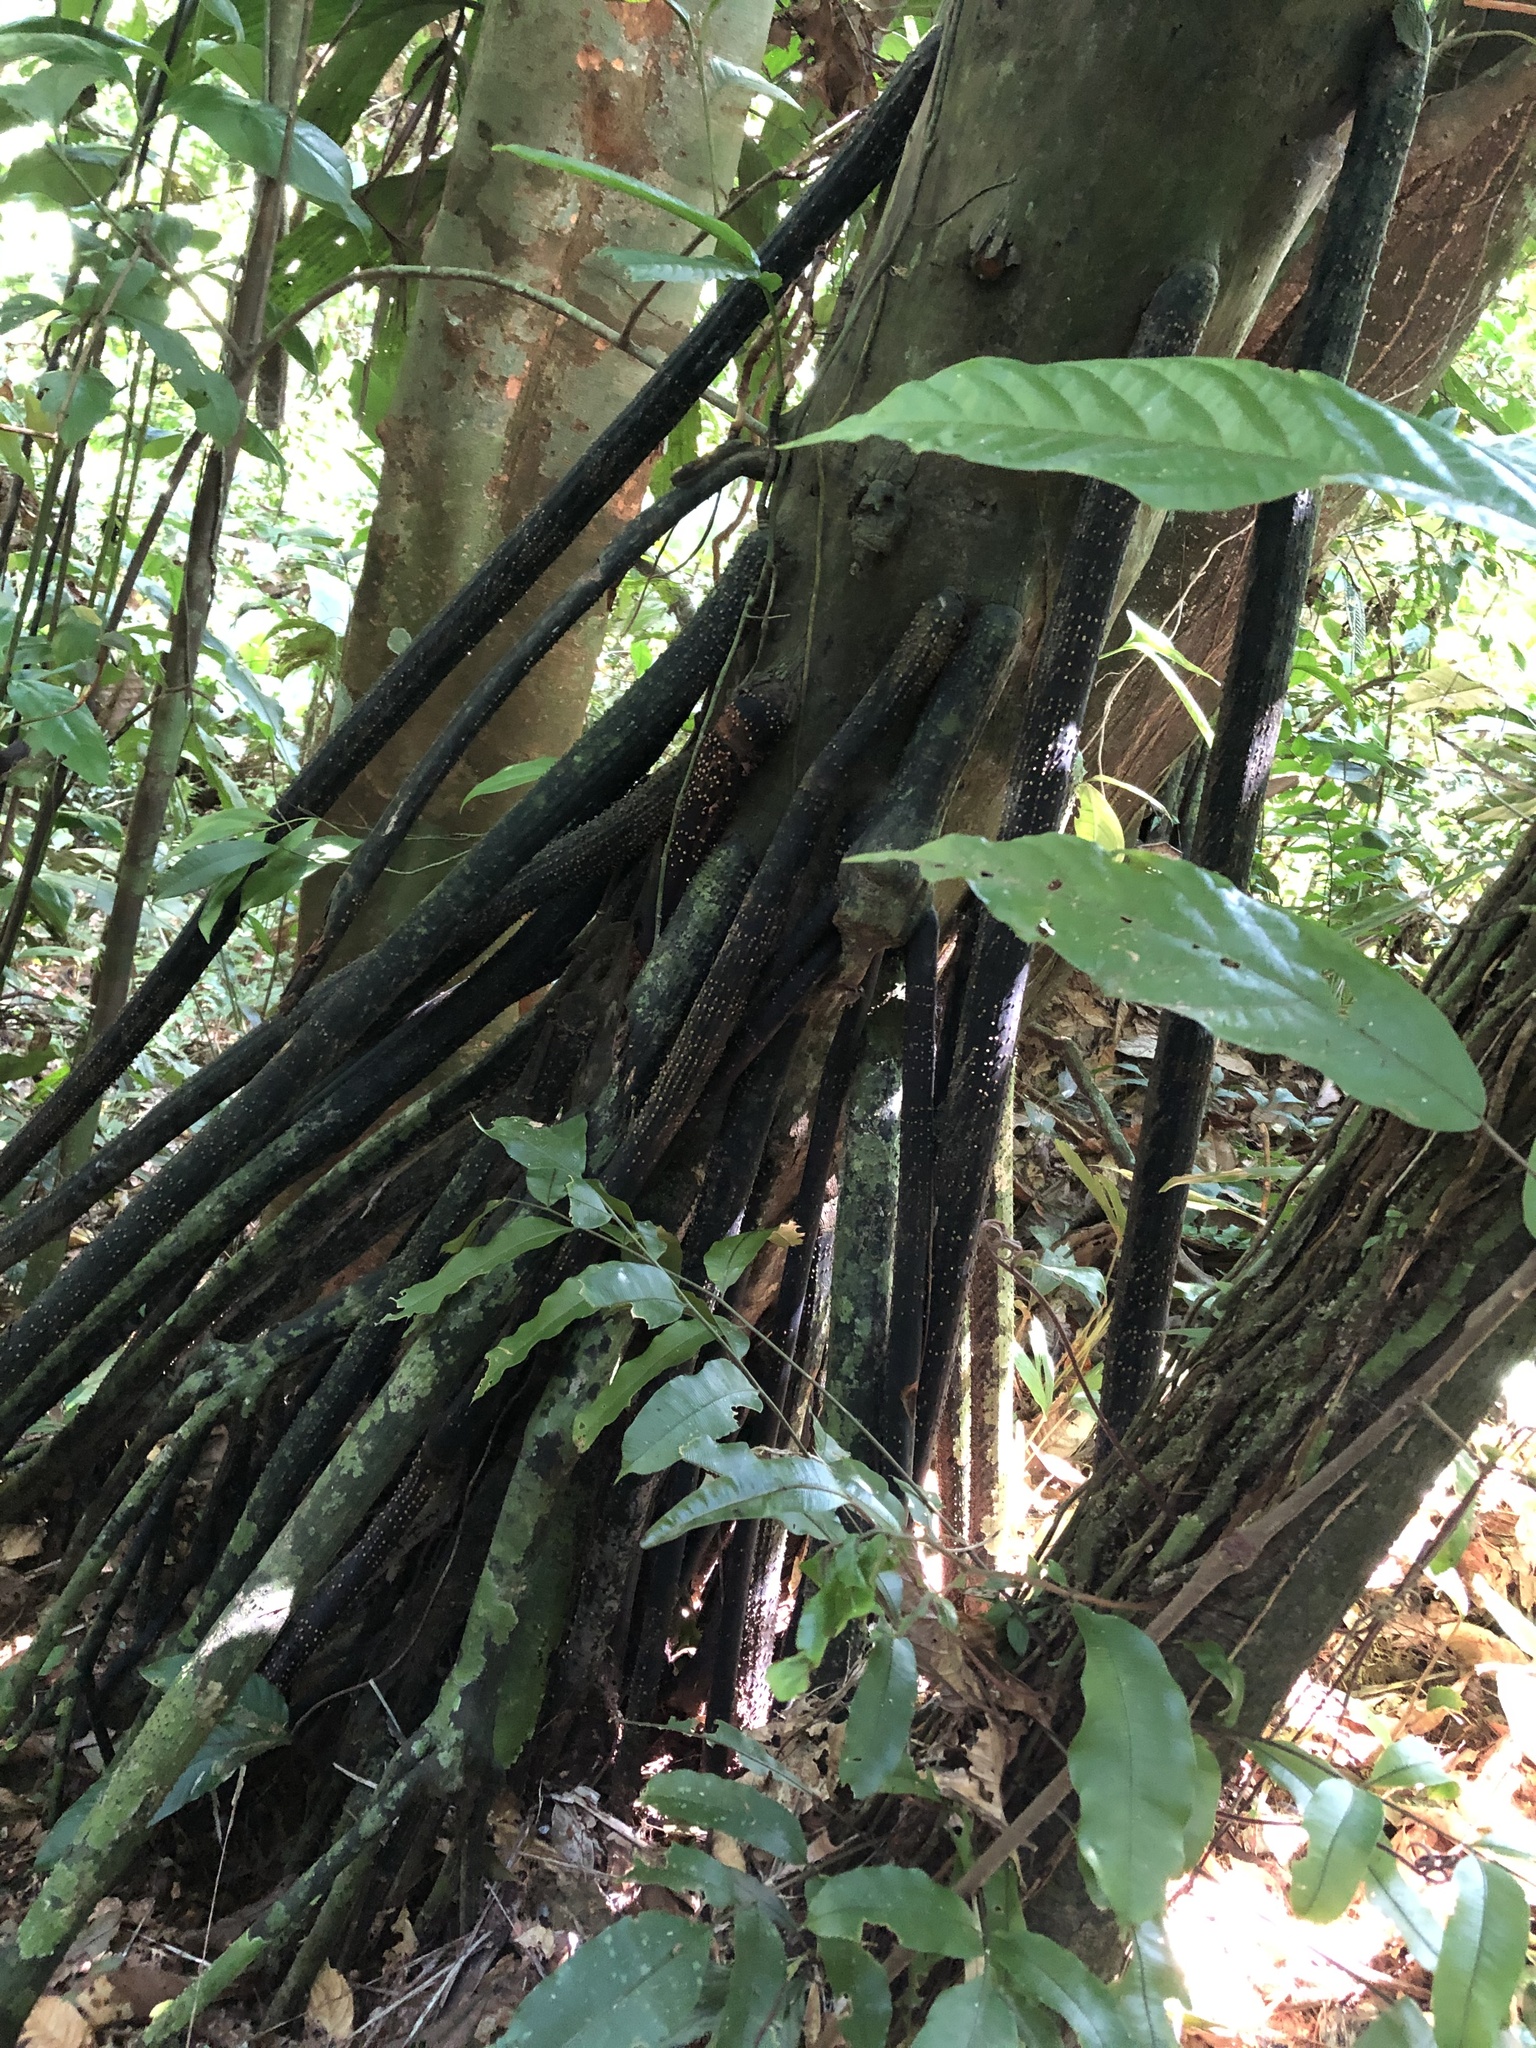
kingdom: Plantae
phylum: Tracheophyta
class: Liliopsida
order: Arecales
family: Arecaceae
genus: Iriartea
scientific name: Iriartea deltoidea
